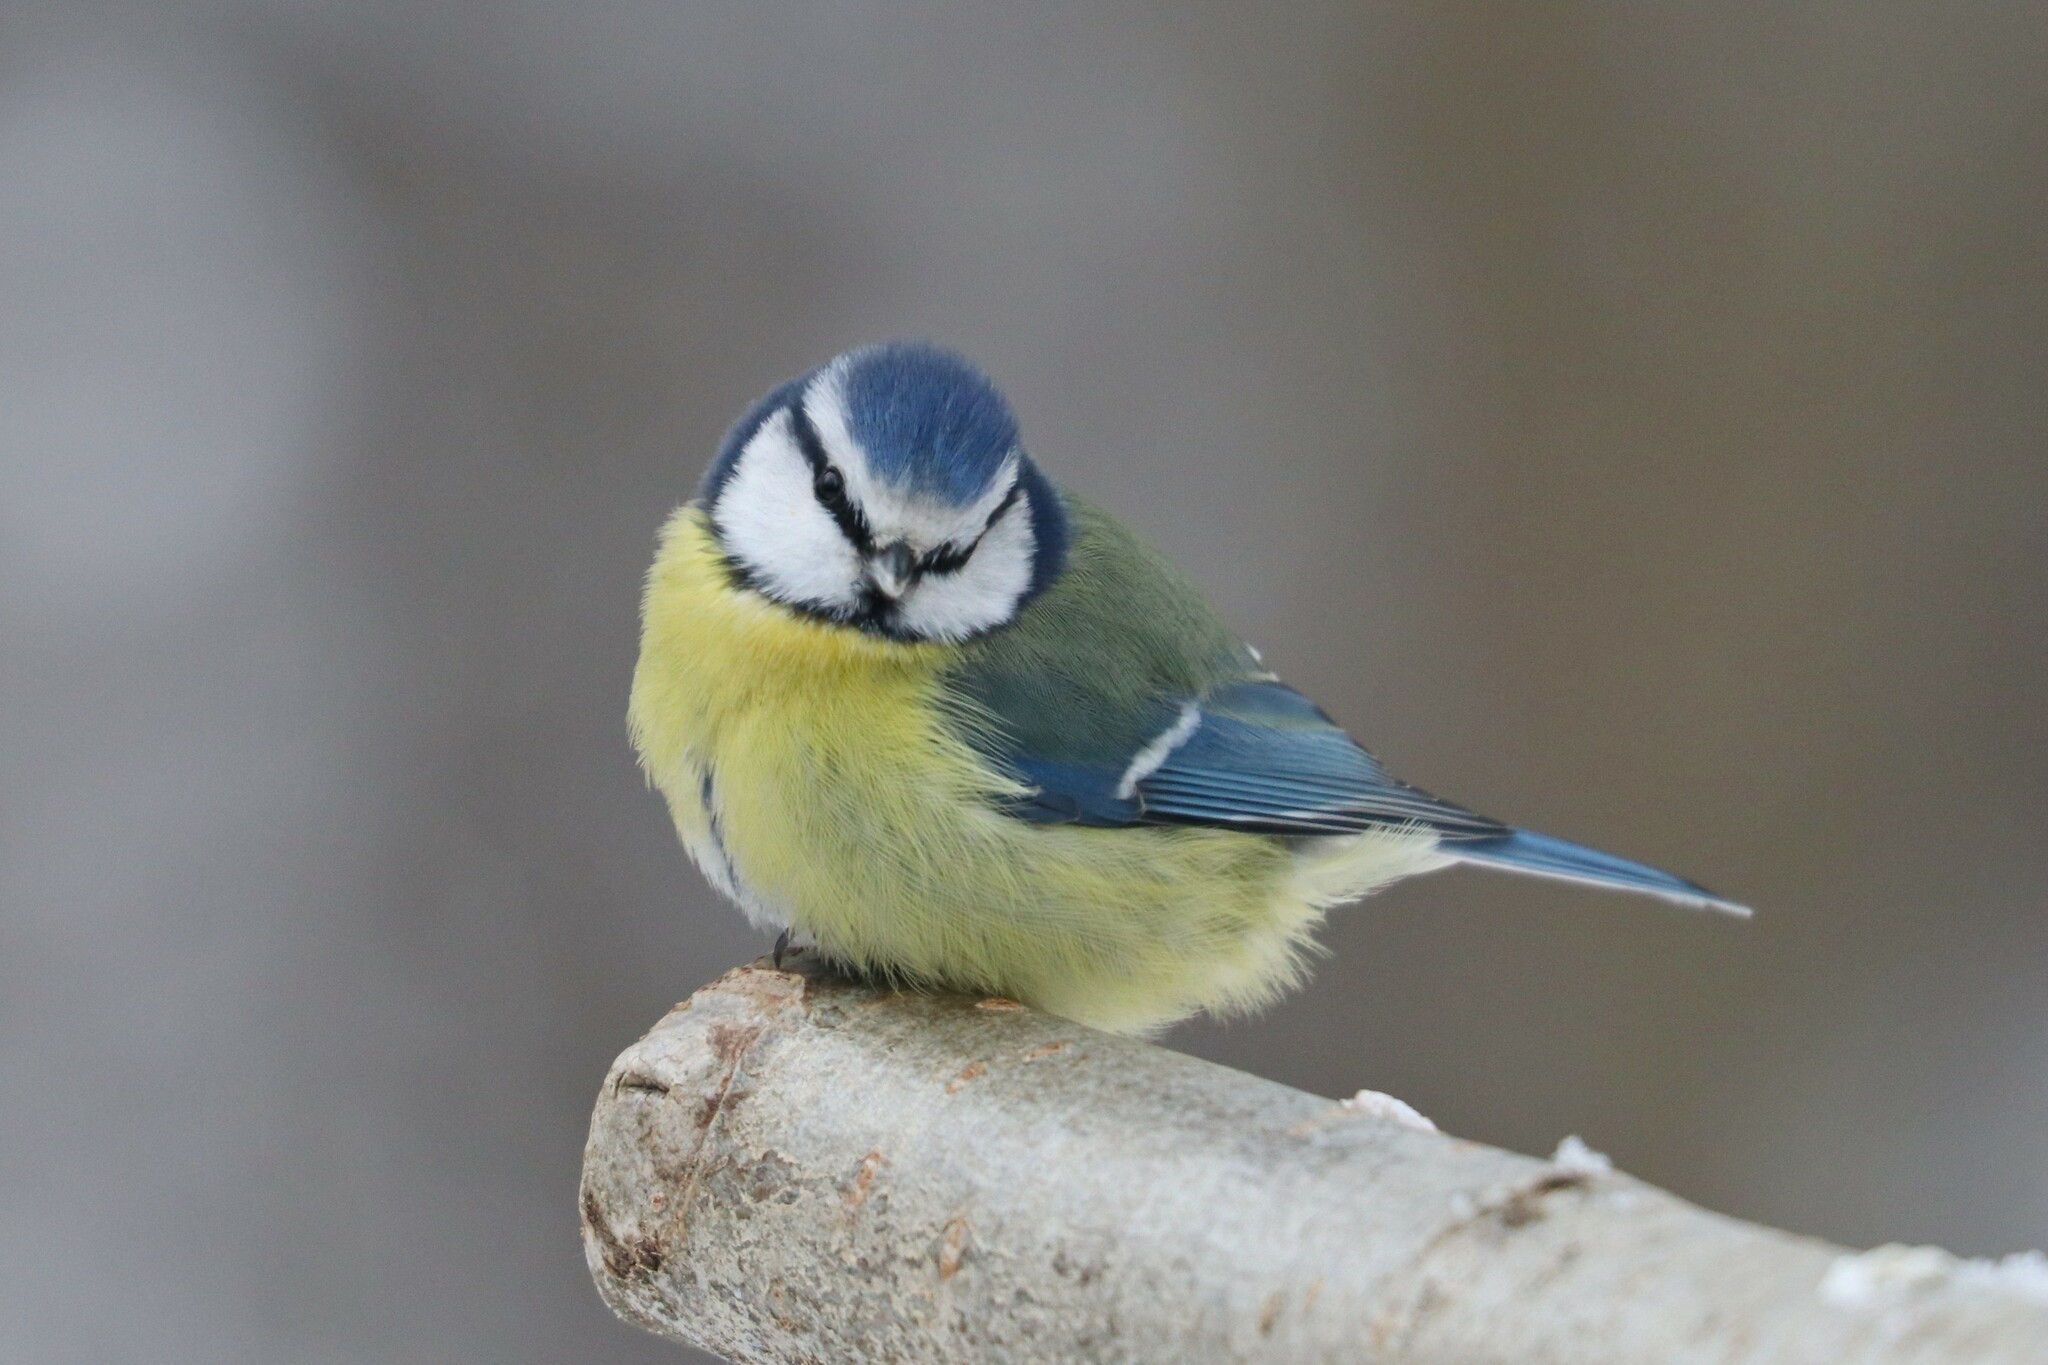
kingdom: Animalia
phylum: Chordata
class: Aves
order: Passeriformes
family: Paridae
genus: Cyanistes
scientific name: Cyanistes caeruleus
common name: Eurasian blue tit
